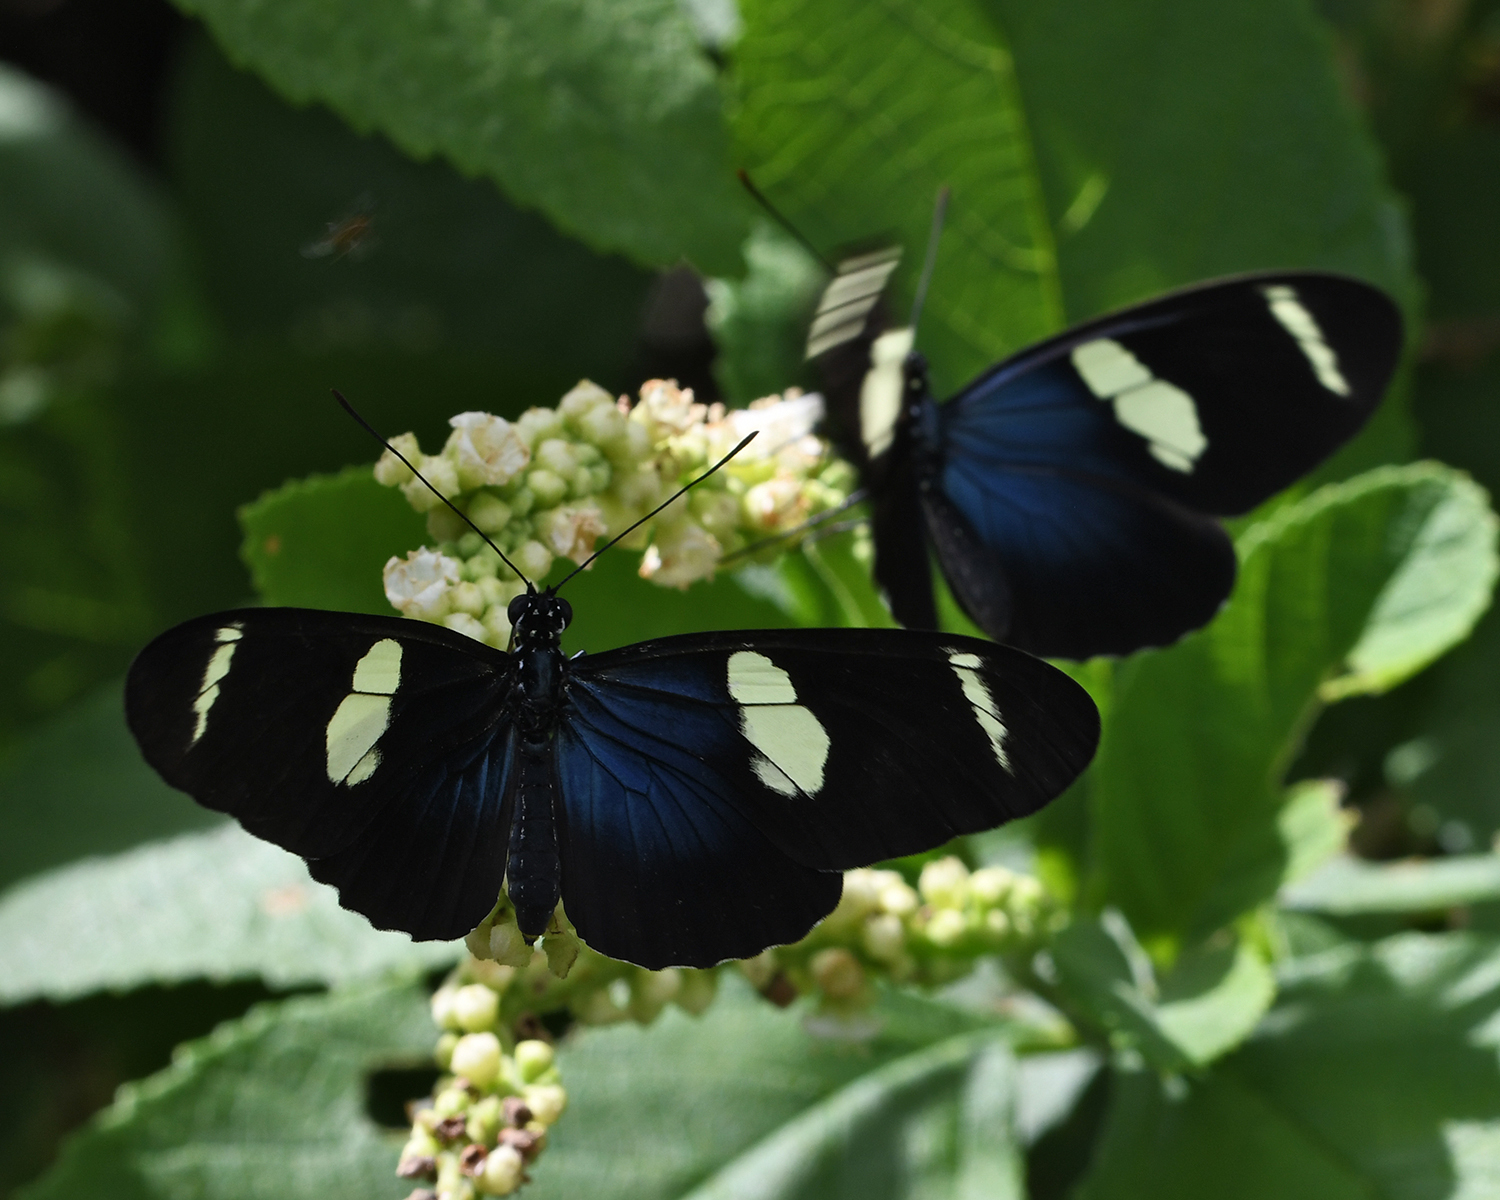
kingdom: Animalia
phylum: Arthropoda
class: Insecta
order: Lepidoptera
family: Nymphalidae
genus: Heliconius
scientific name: Heliconius sara
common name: Sara longwing
